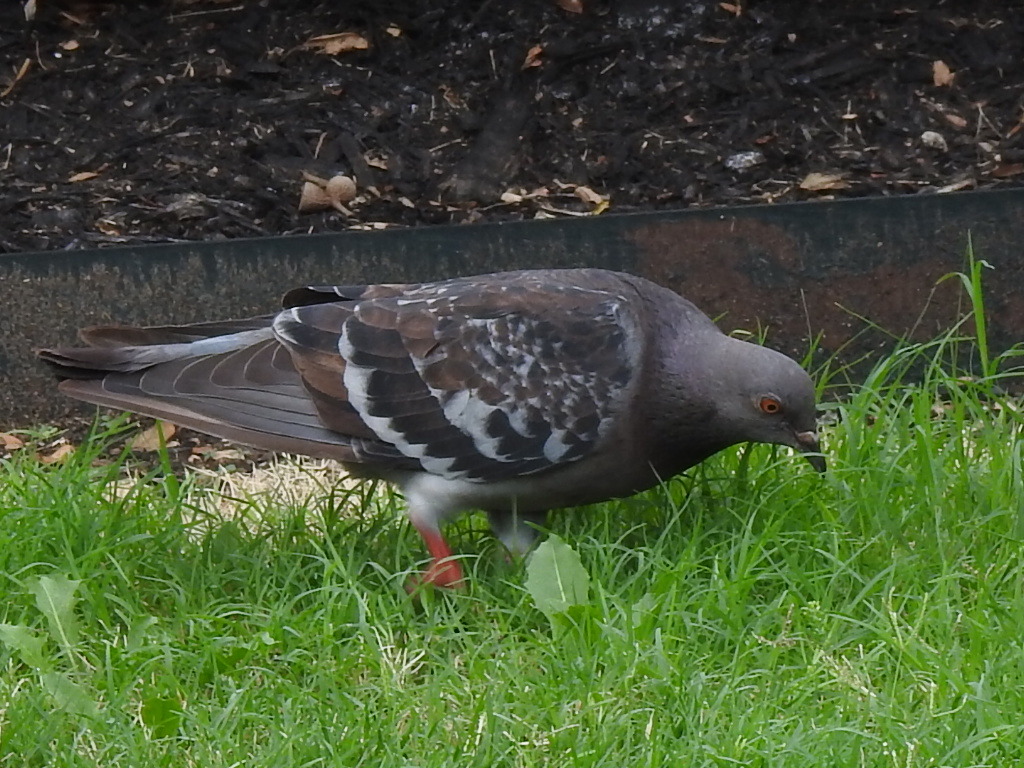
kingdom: Animalia
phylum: Chordata
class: Aves
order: Columbiformes
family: Columbidae
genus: Columba
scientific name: Columba livia
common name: Rock pigeon
